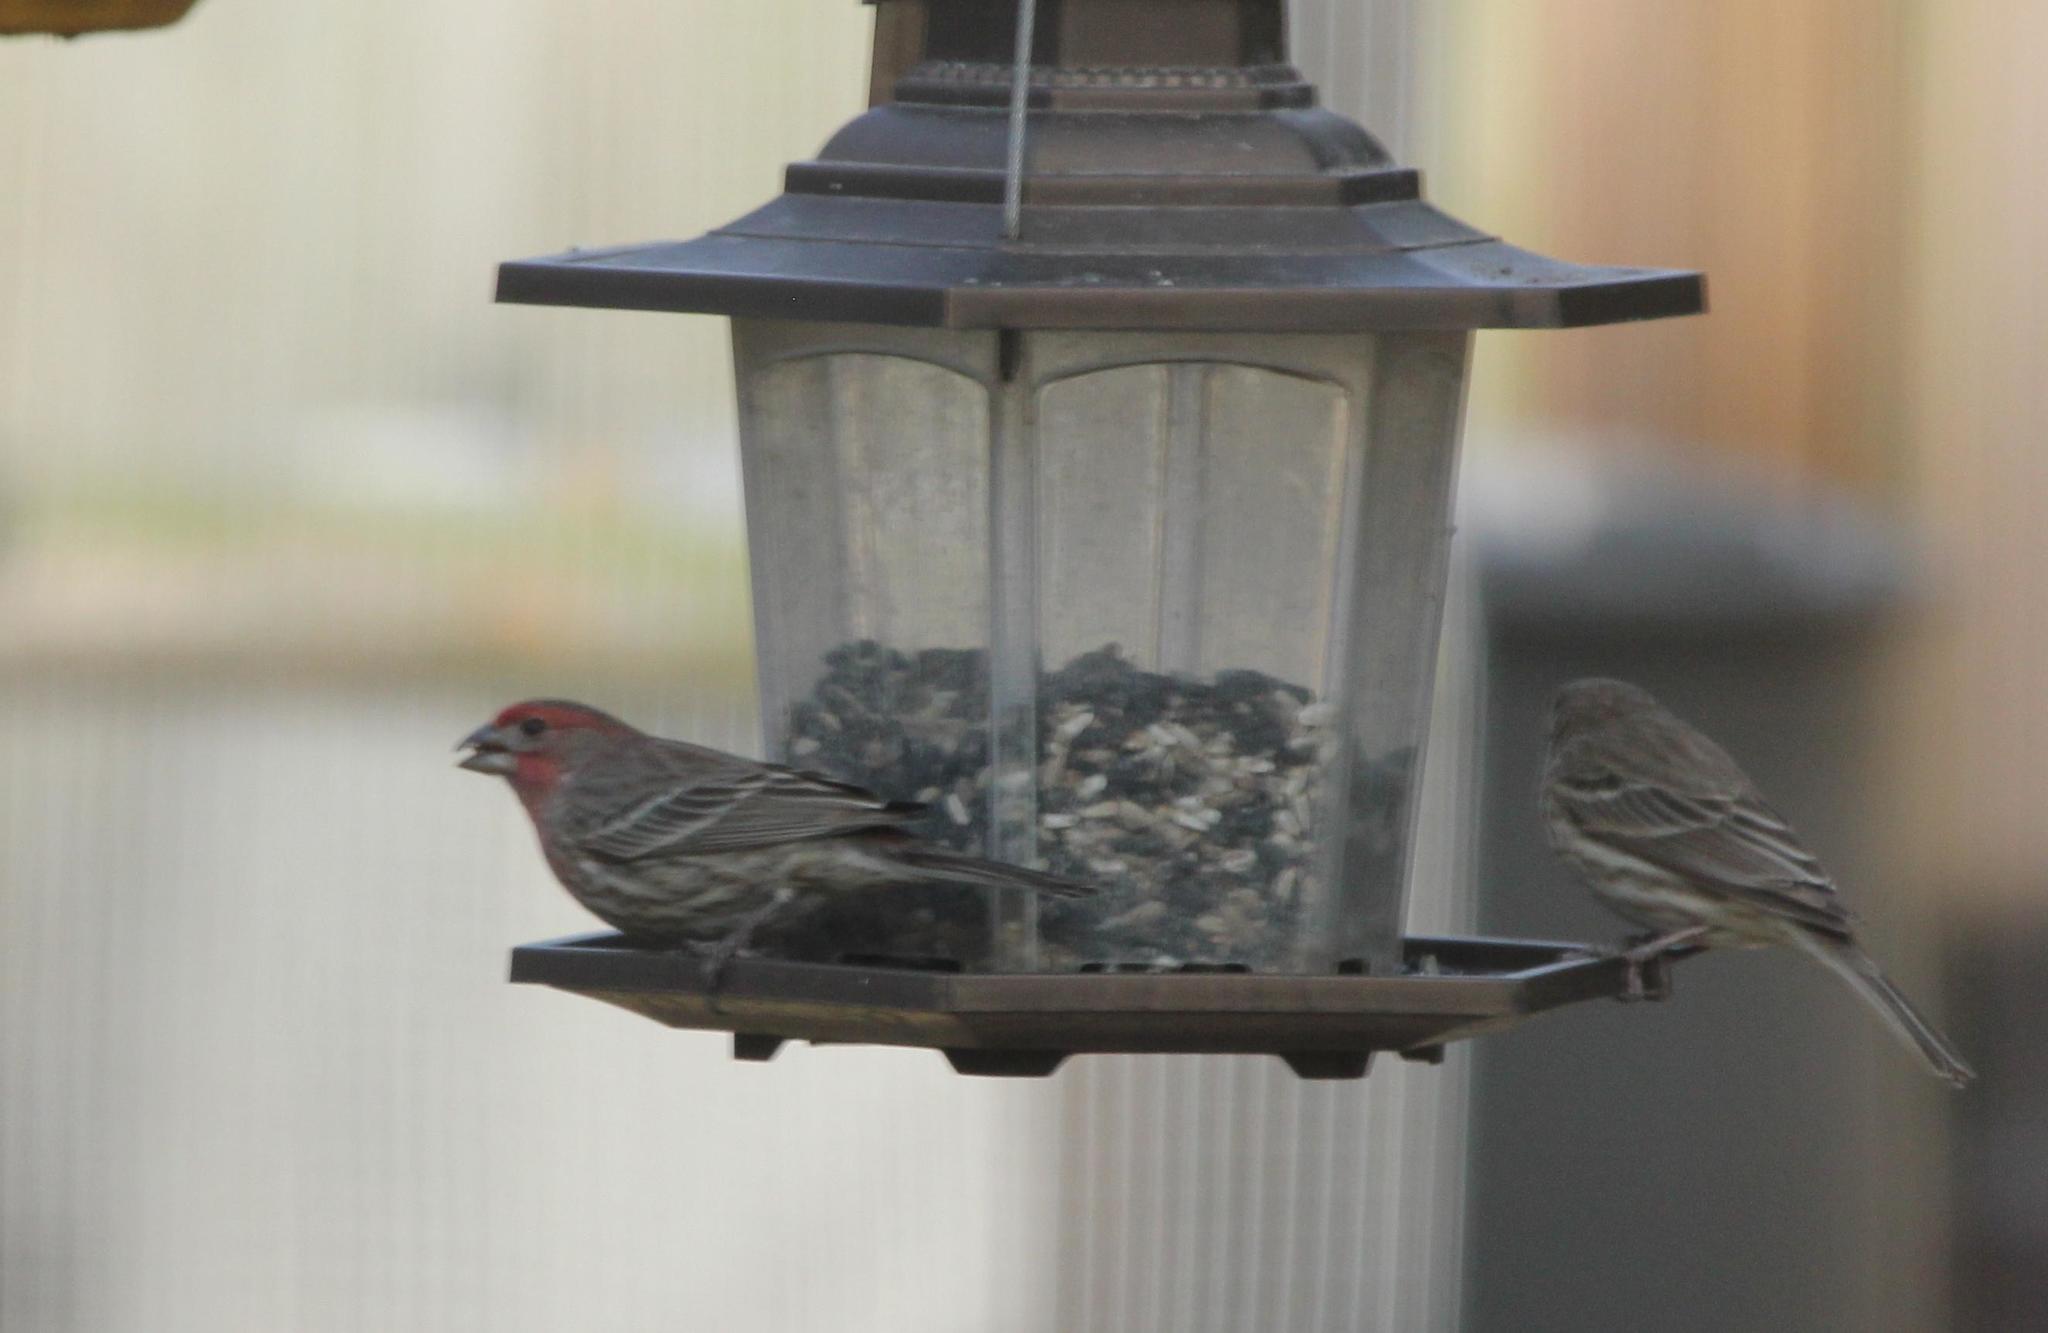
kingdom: Animalia
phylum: Chordata
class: Aves
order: Passeriformes
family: Fringillidae
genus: Haemorhous
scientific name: Haemorhous mexicanus
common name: House finch
